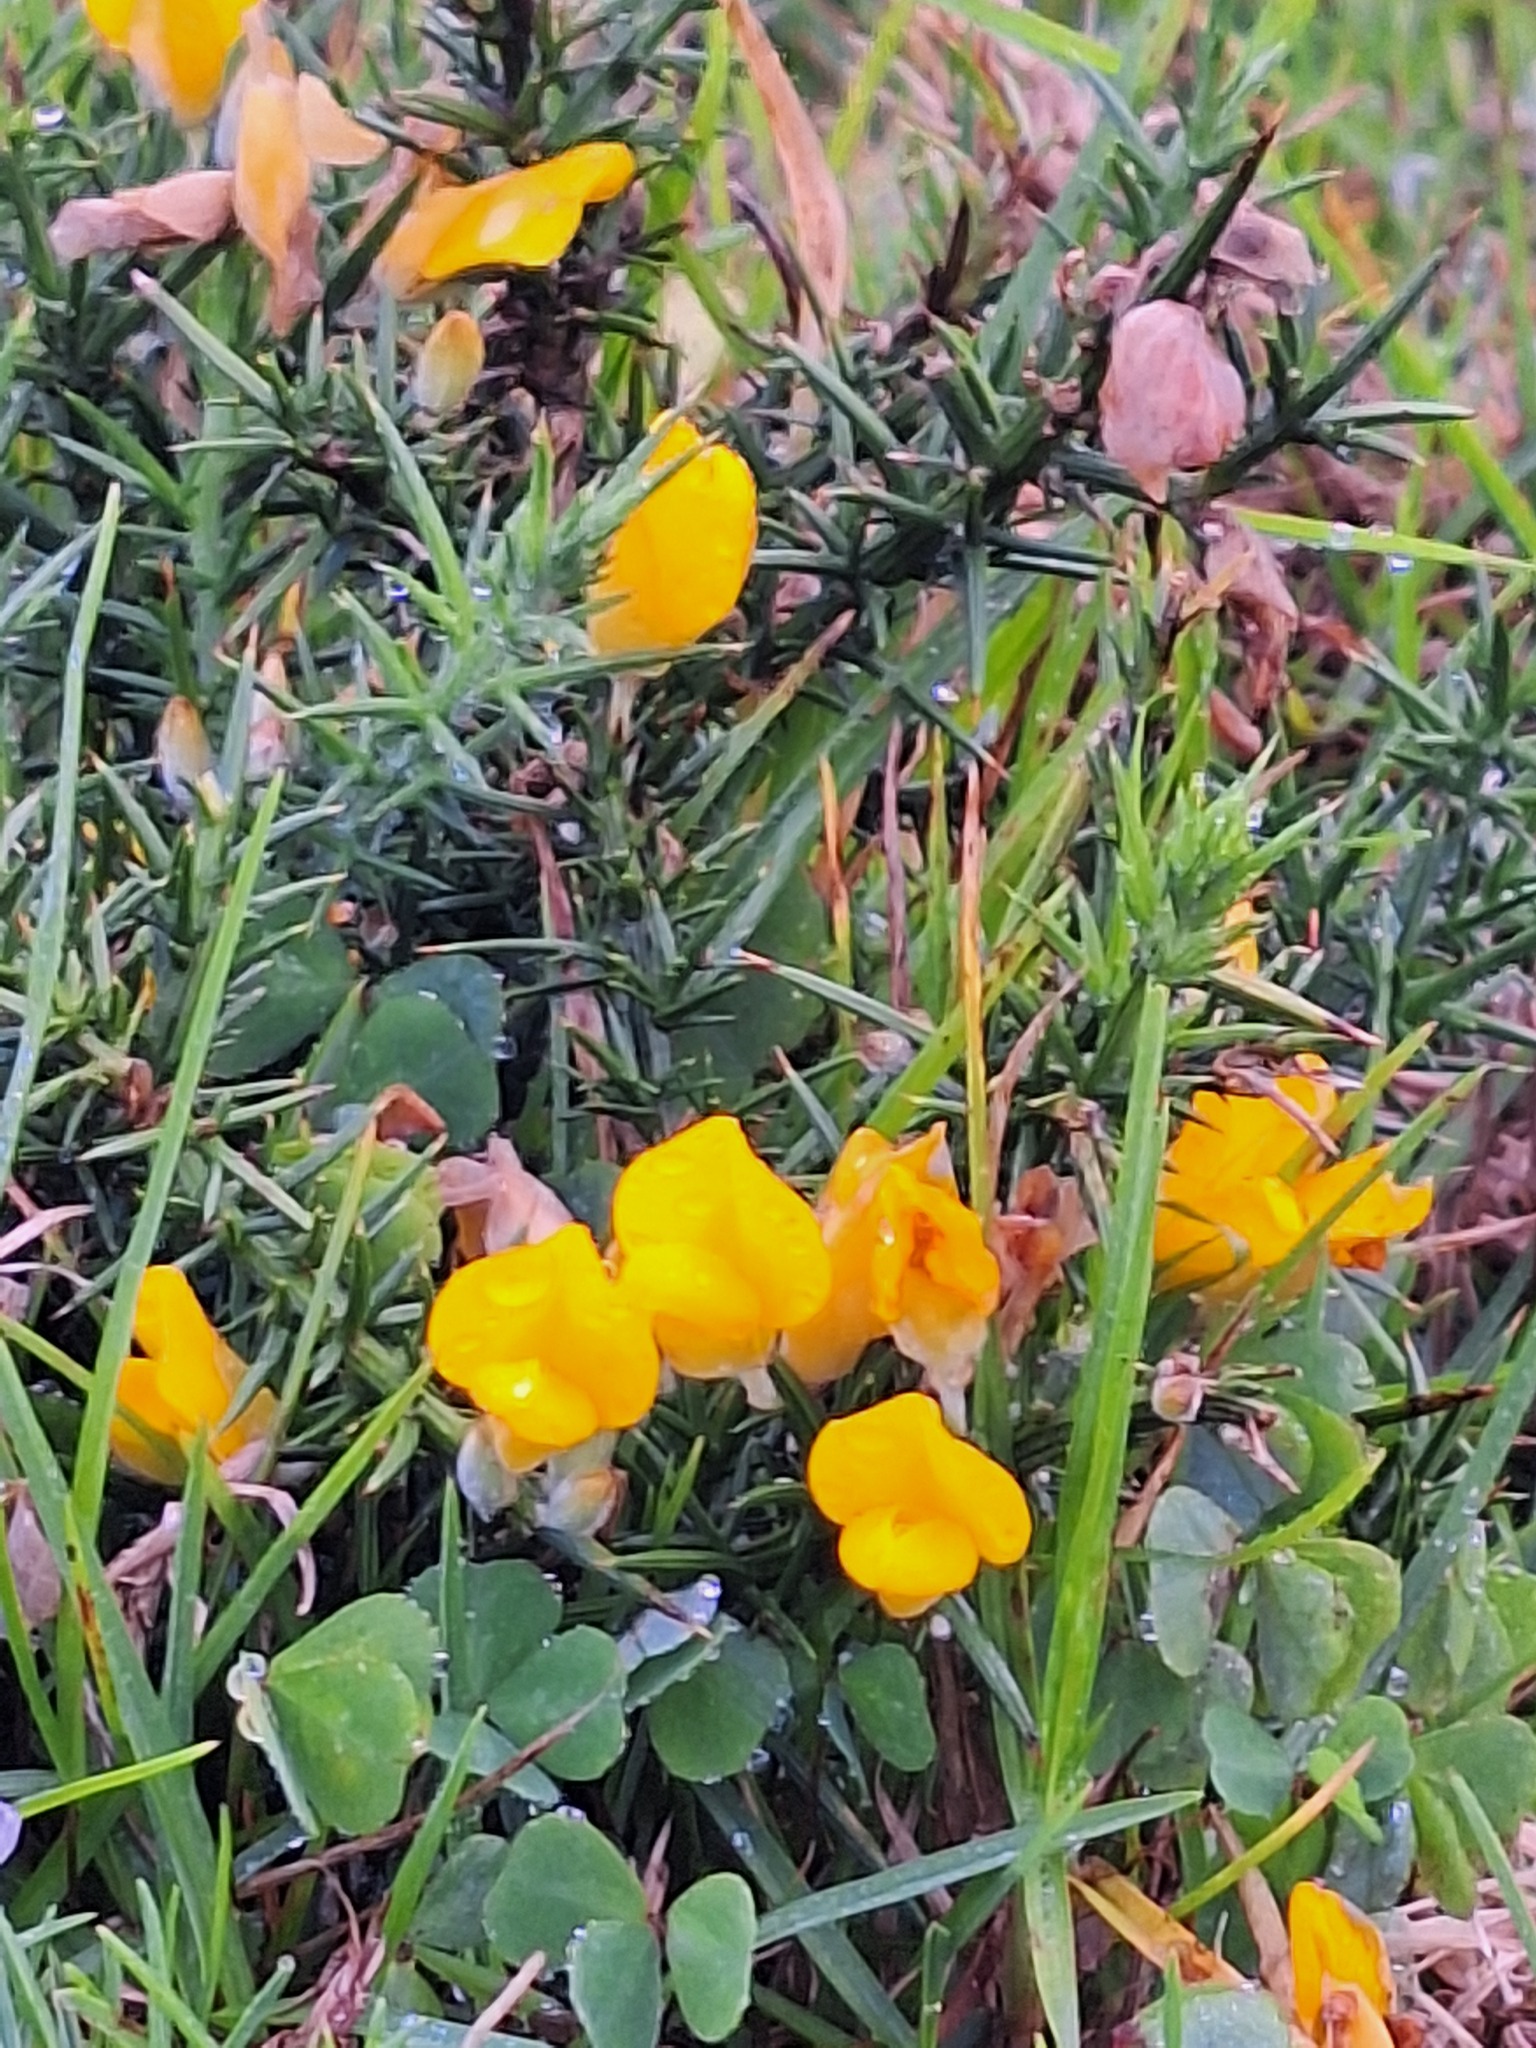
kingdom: Plantae
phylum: Tracheophyta
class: Magnoliopsida
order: Fabales
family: Fabaceae
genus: Ulex
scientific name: Ulex europaeus
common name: Common gorse
